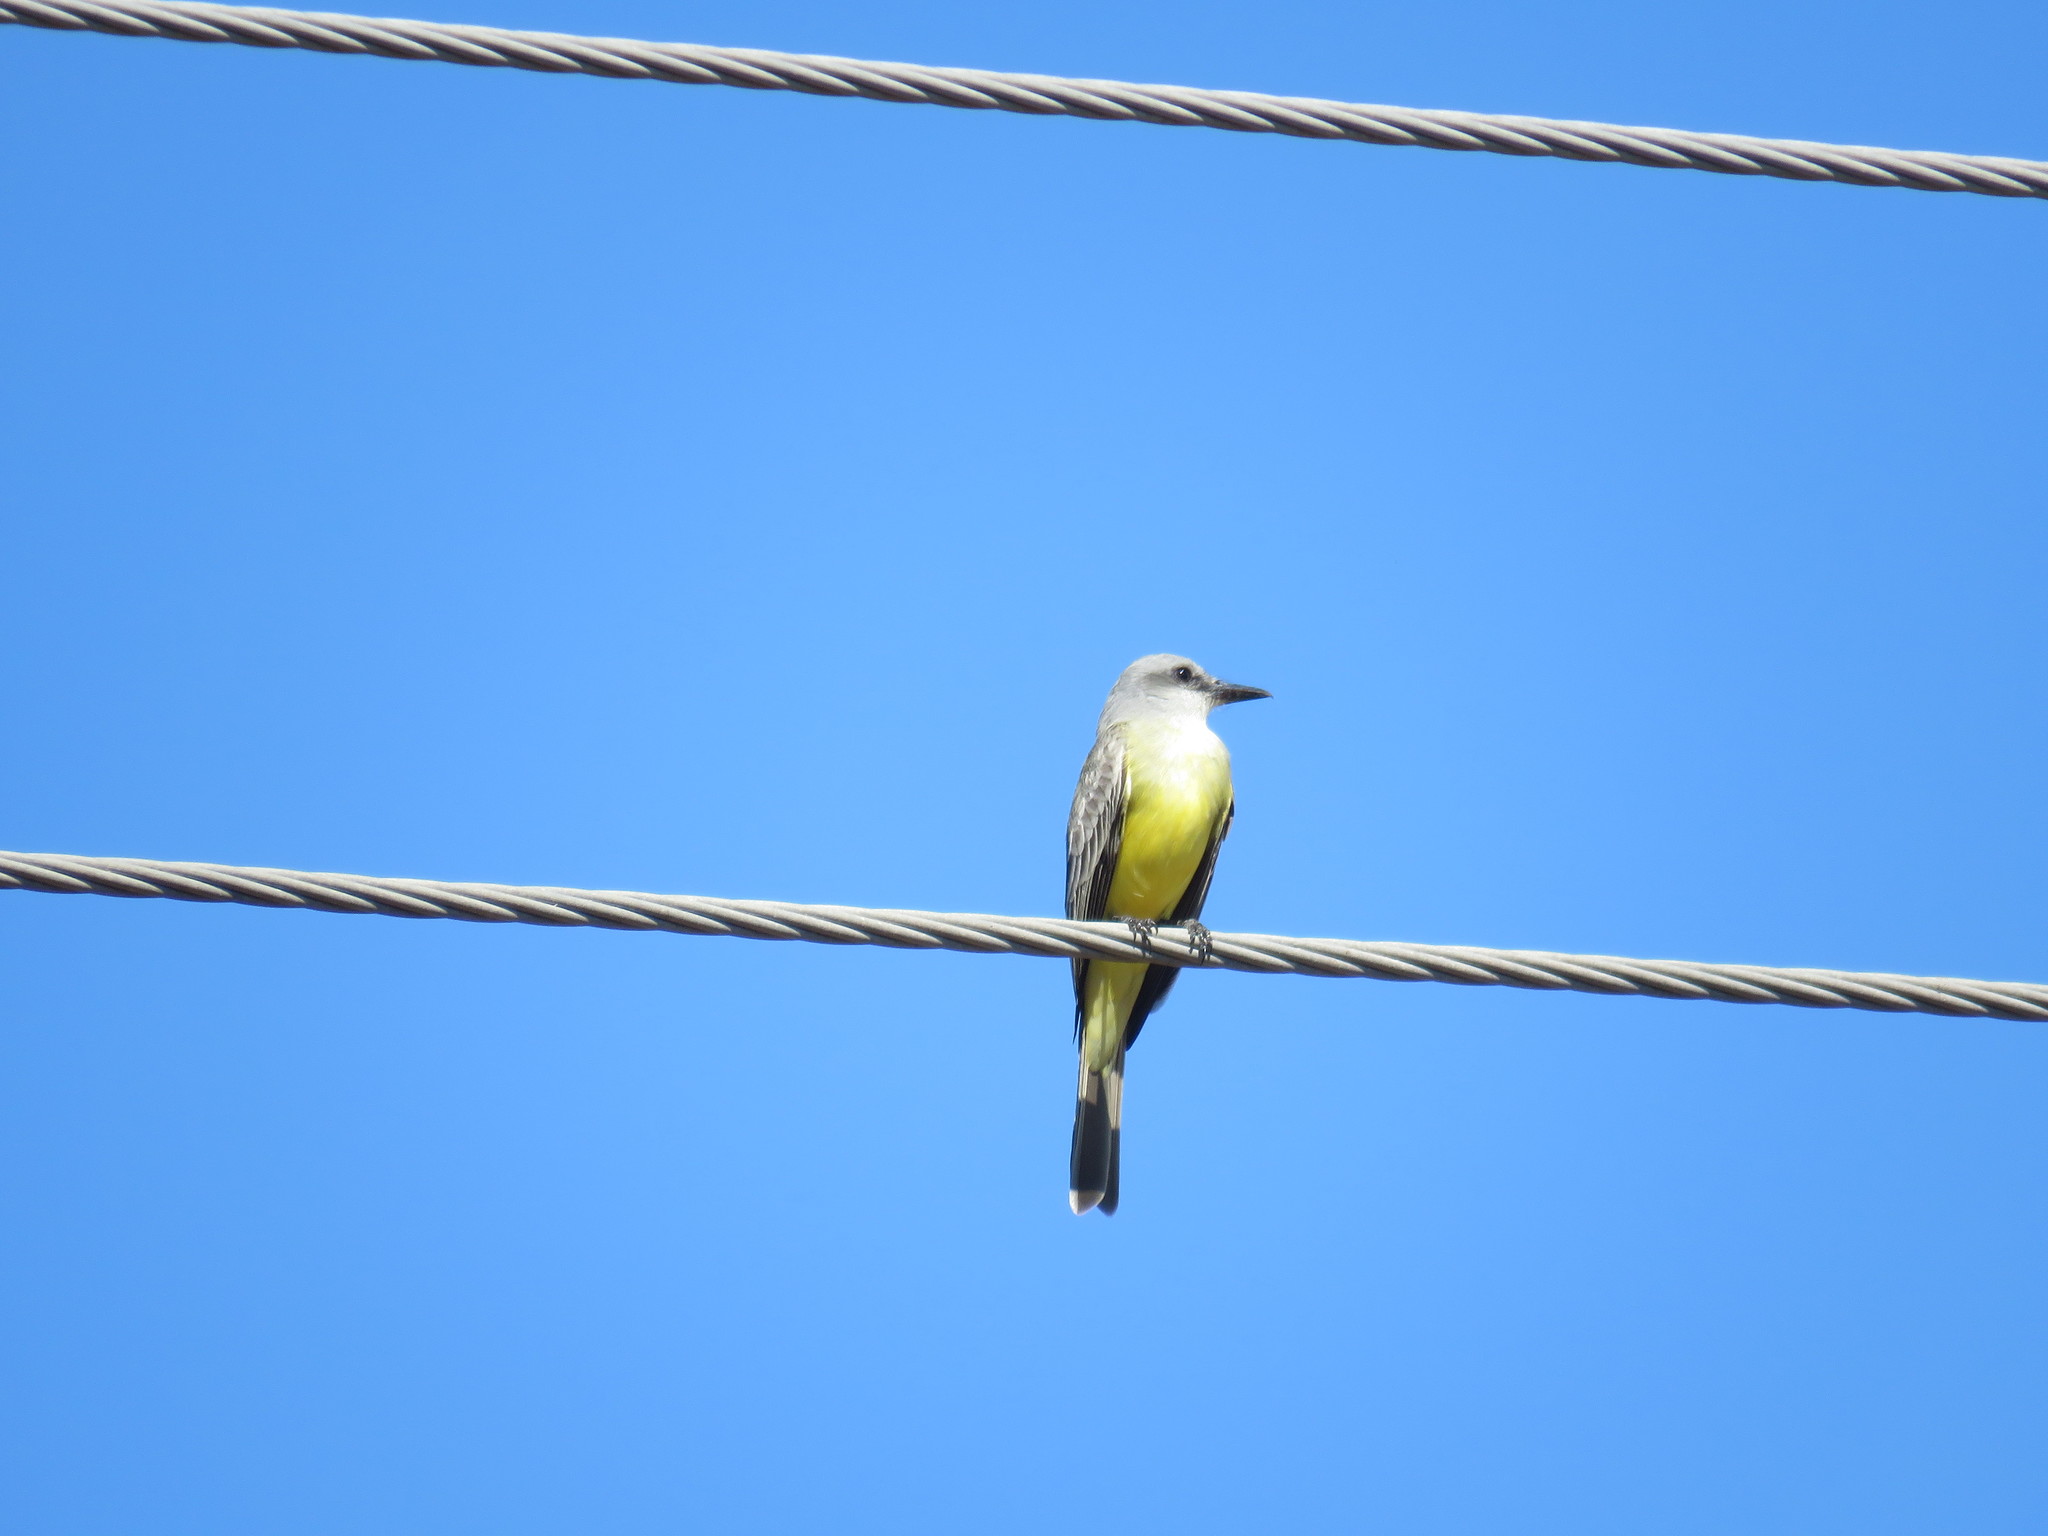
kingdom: Animalia
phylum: Chordata
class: Aves
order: Passeriformes
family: Tyrannidae
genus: Tyrannus
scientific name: Tyrannus melancholicus
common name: Tropical kingbird
